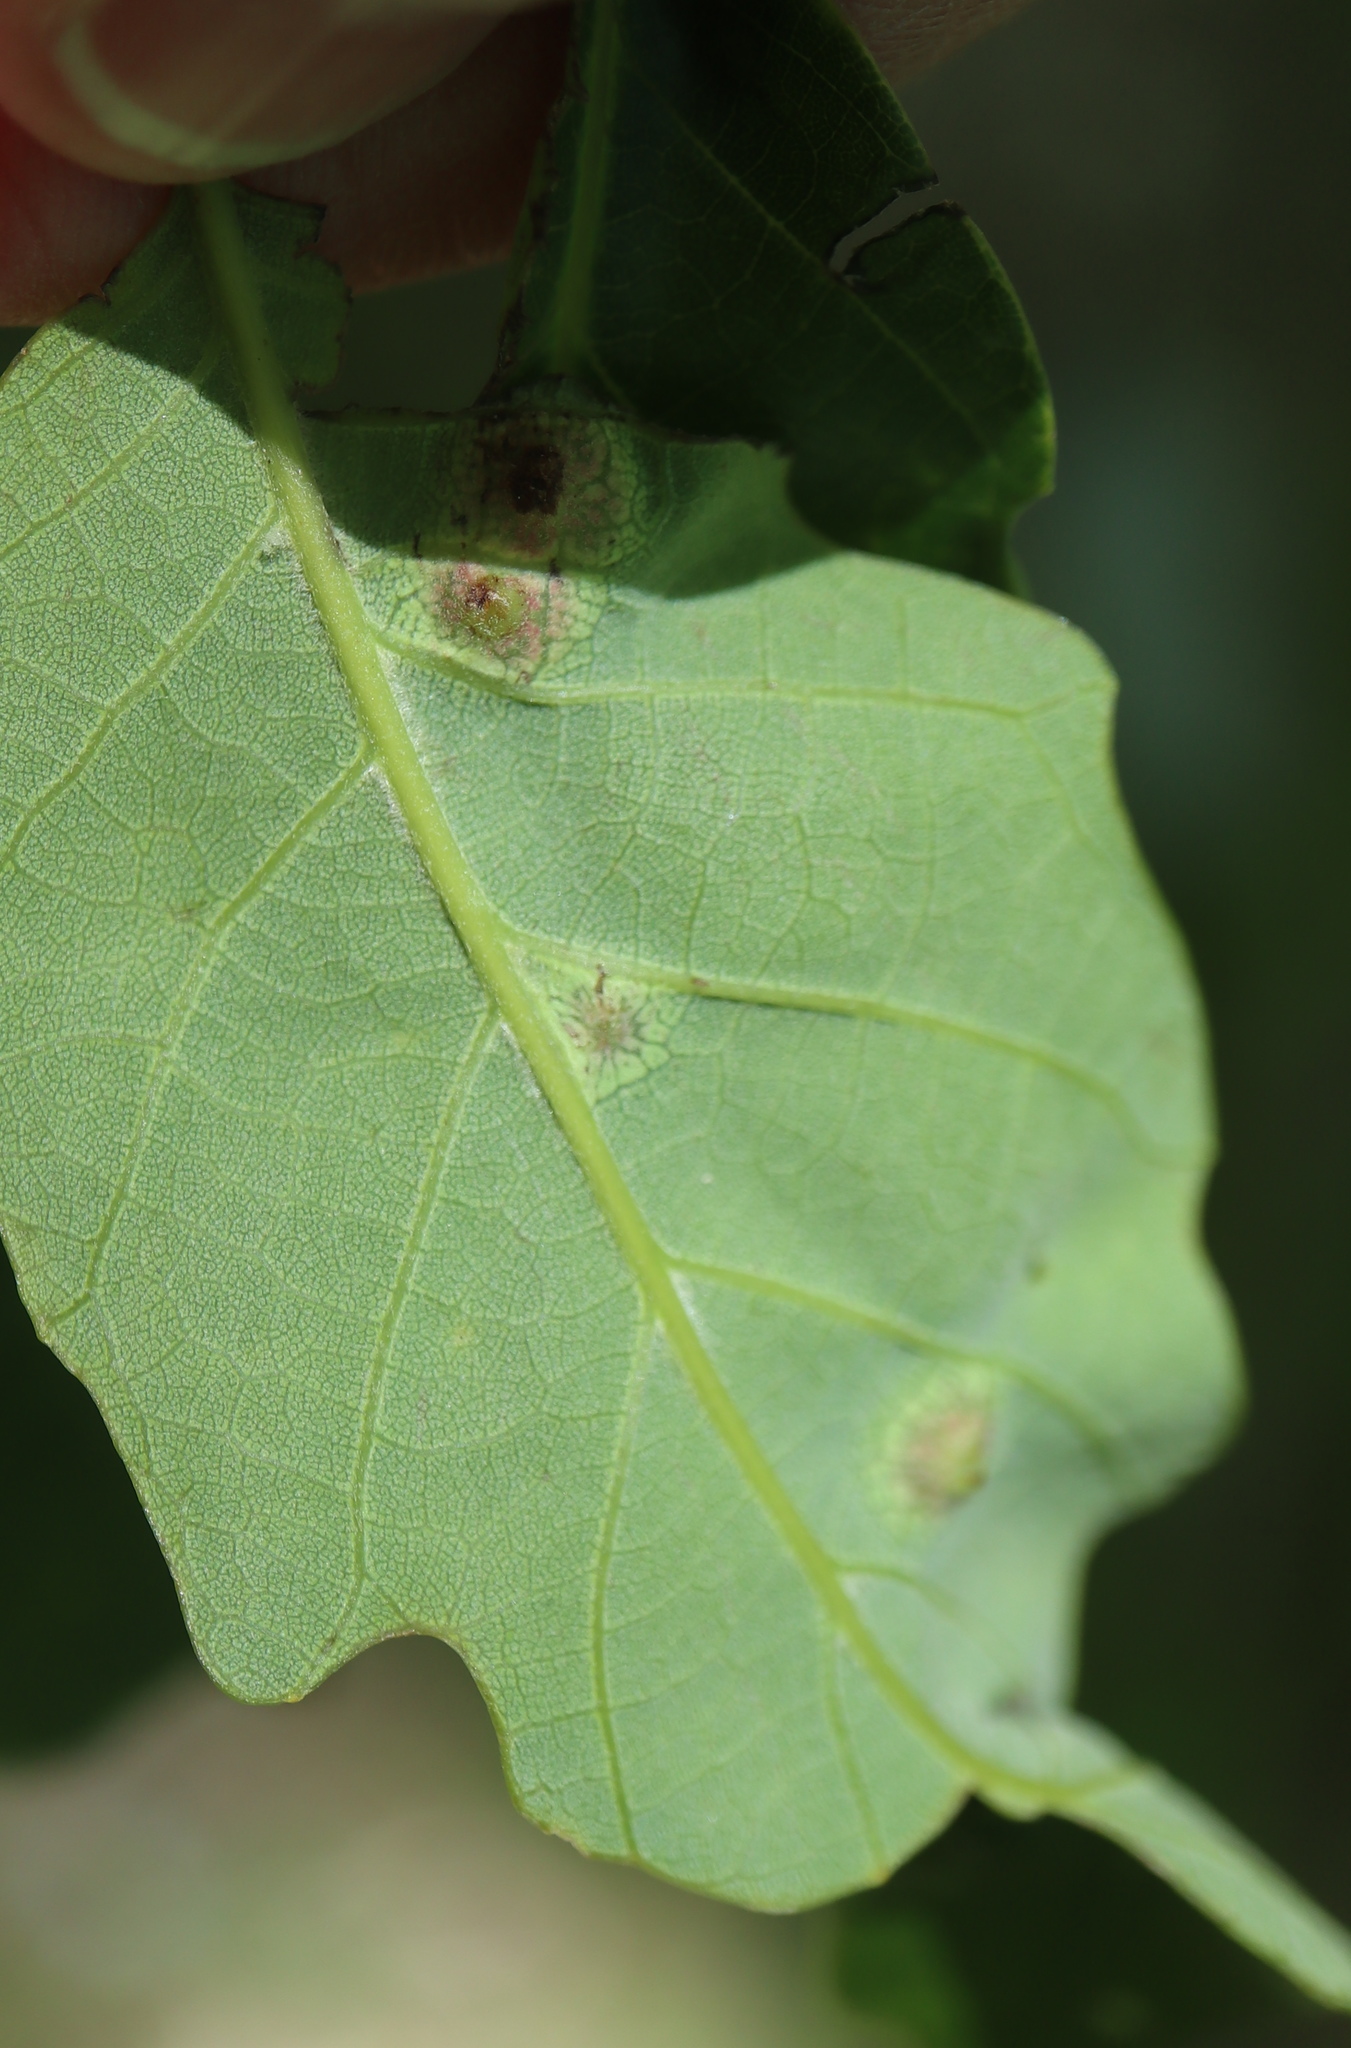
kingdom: Animalia
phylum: Arthropoda
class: Insecta
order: Hymenoptera
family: Cynipidae
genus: Callirhytis
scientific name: Callirhytis
